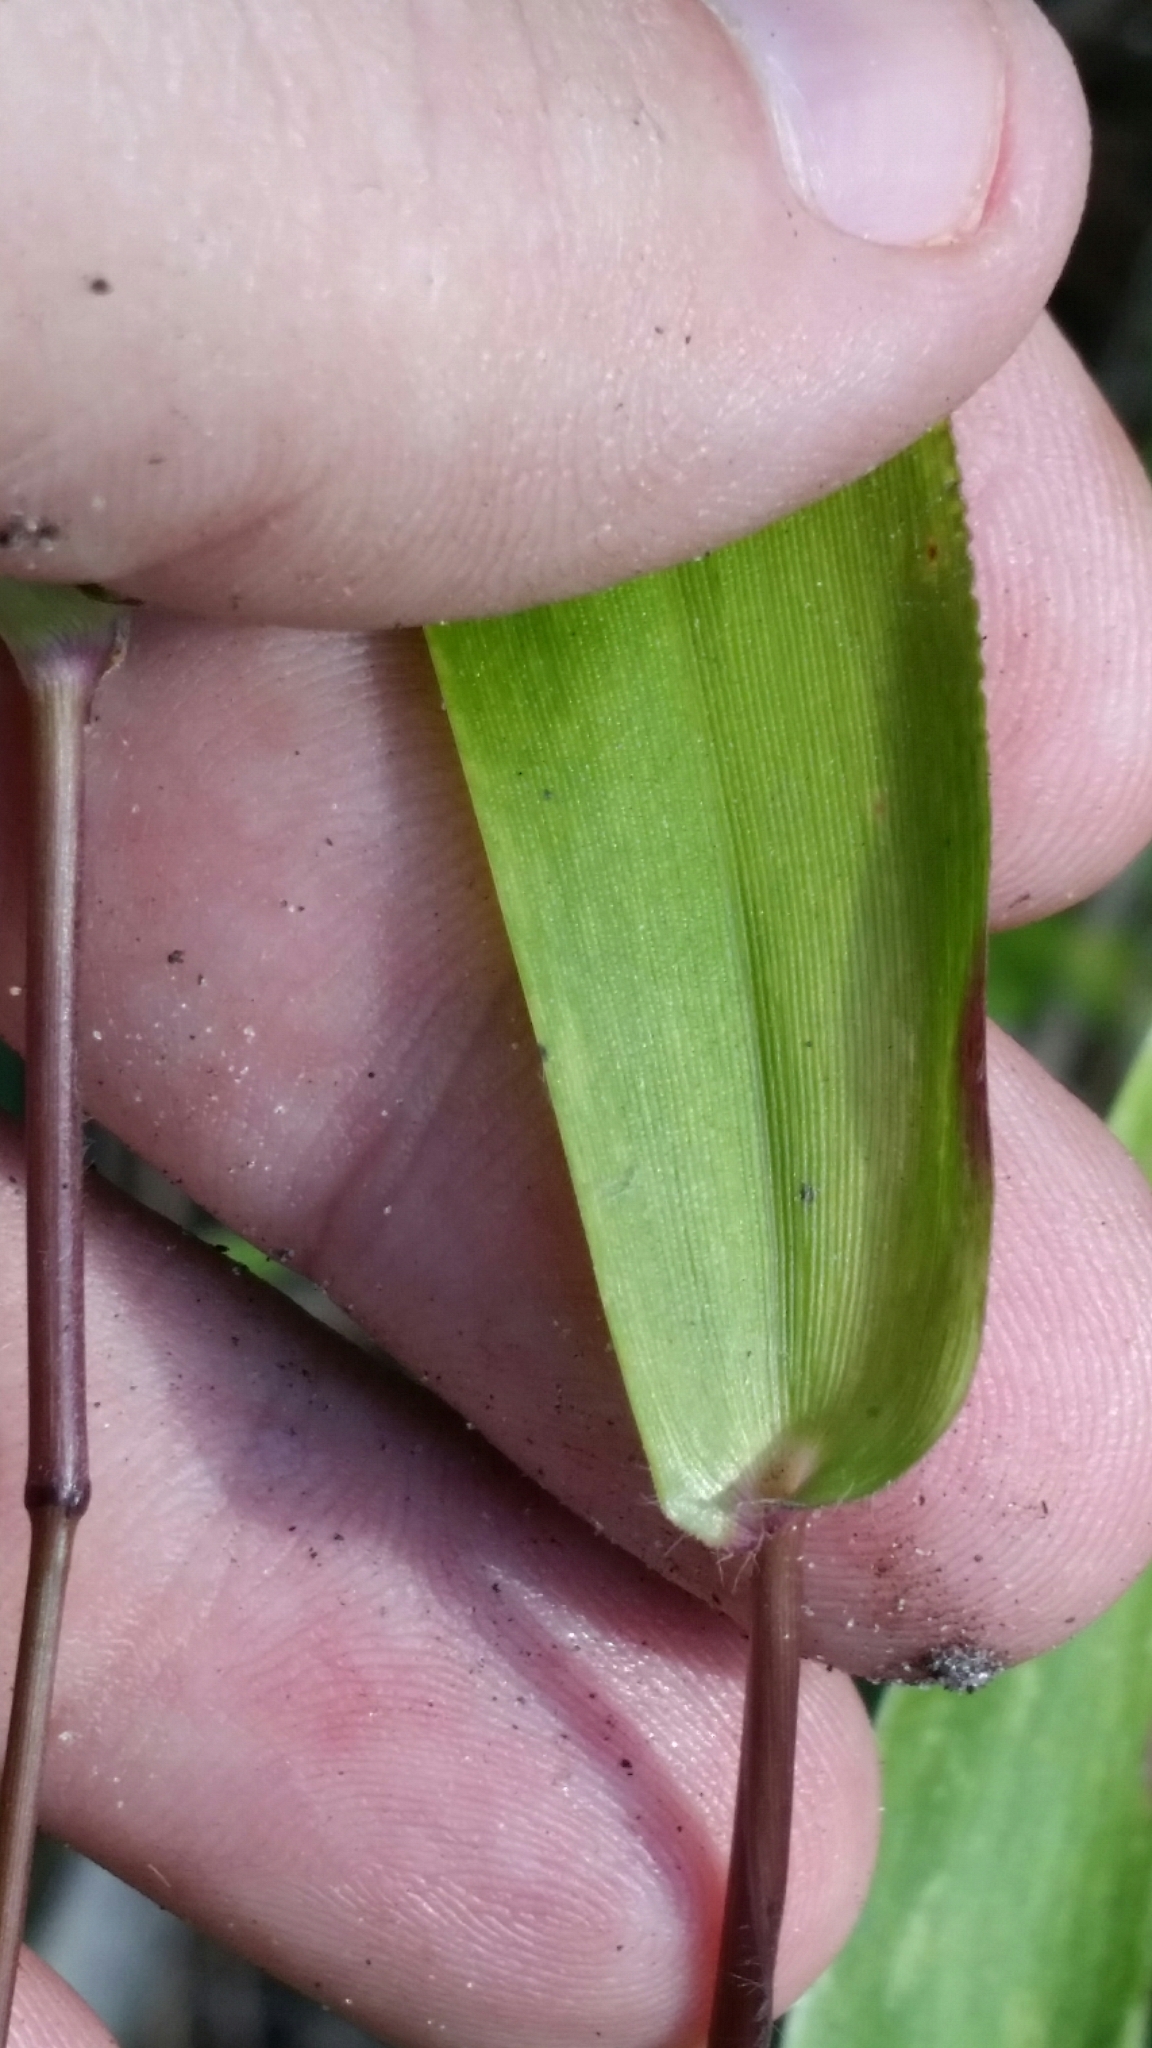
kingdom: Plantae
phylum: Tracheophyta
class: Liliopsida
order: Poales
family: Poaceae
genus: Dichanthelium
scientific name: Dichanthelium commutatum
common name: Variable witchgrass
